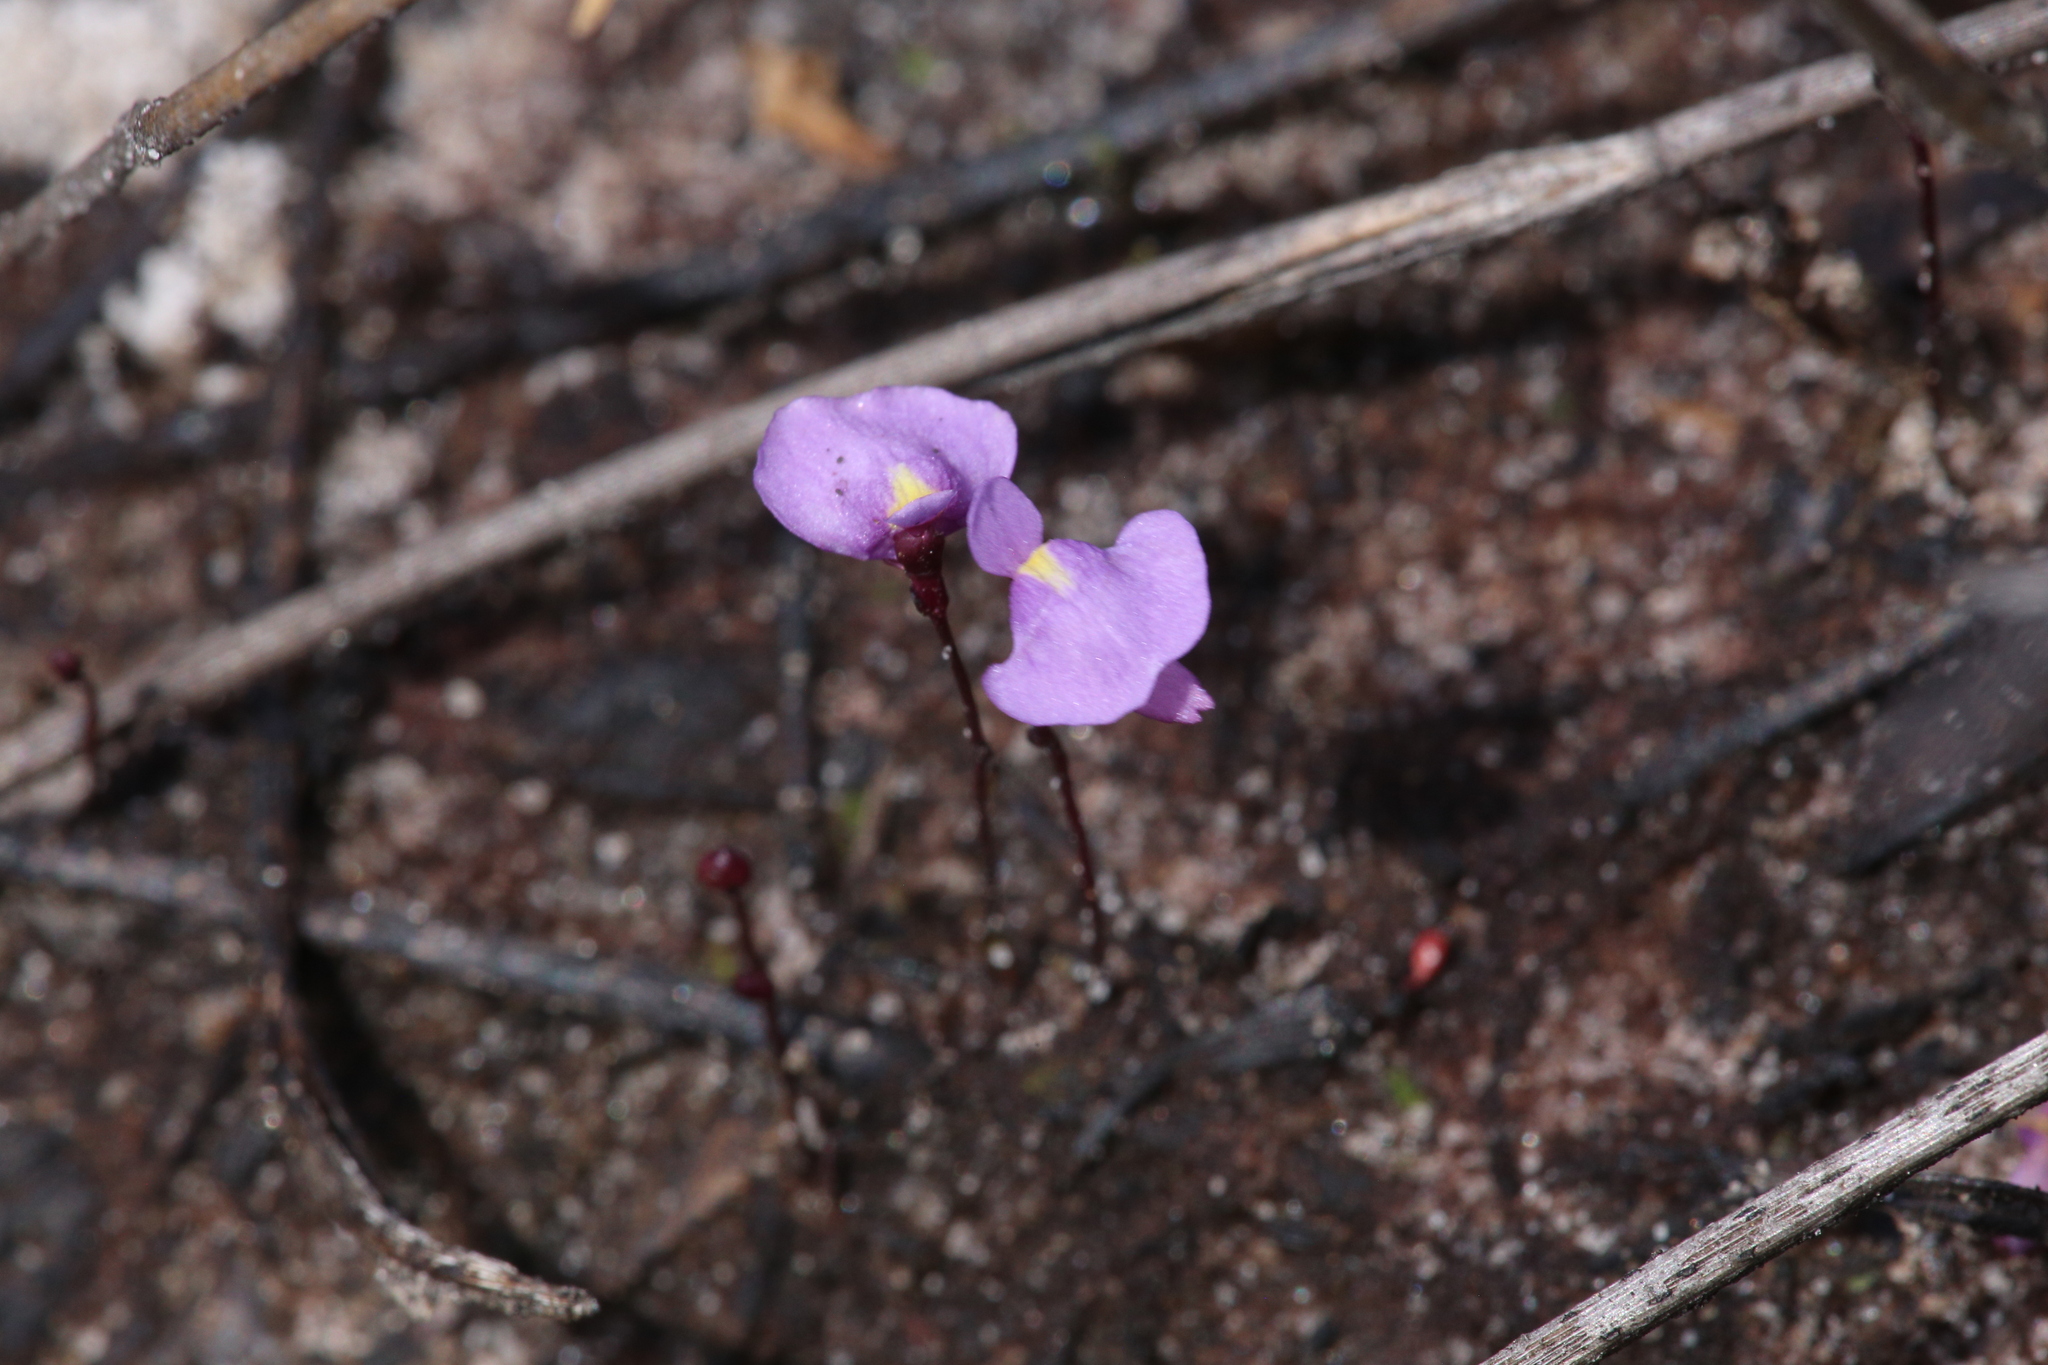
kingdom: Plantae
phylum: Tracheophyta
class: Magnoliopsida
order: Lamiales
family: Lentibulariaceae
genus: Utricularia
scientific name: Utricularia simplex
